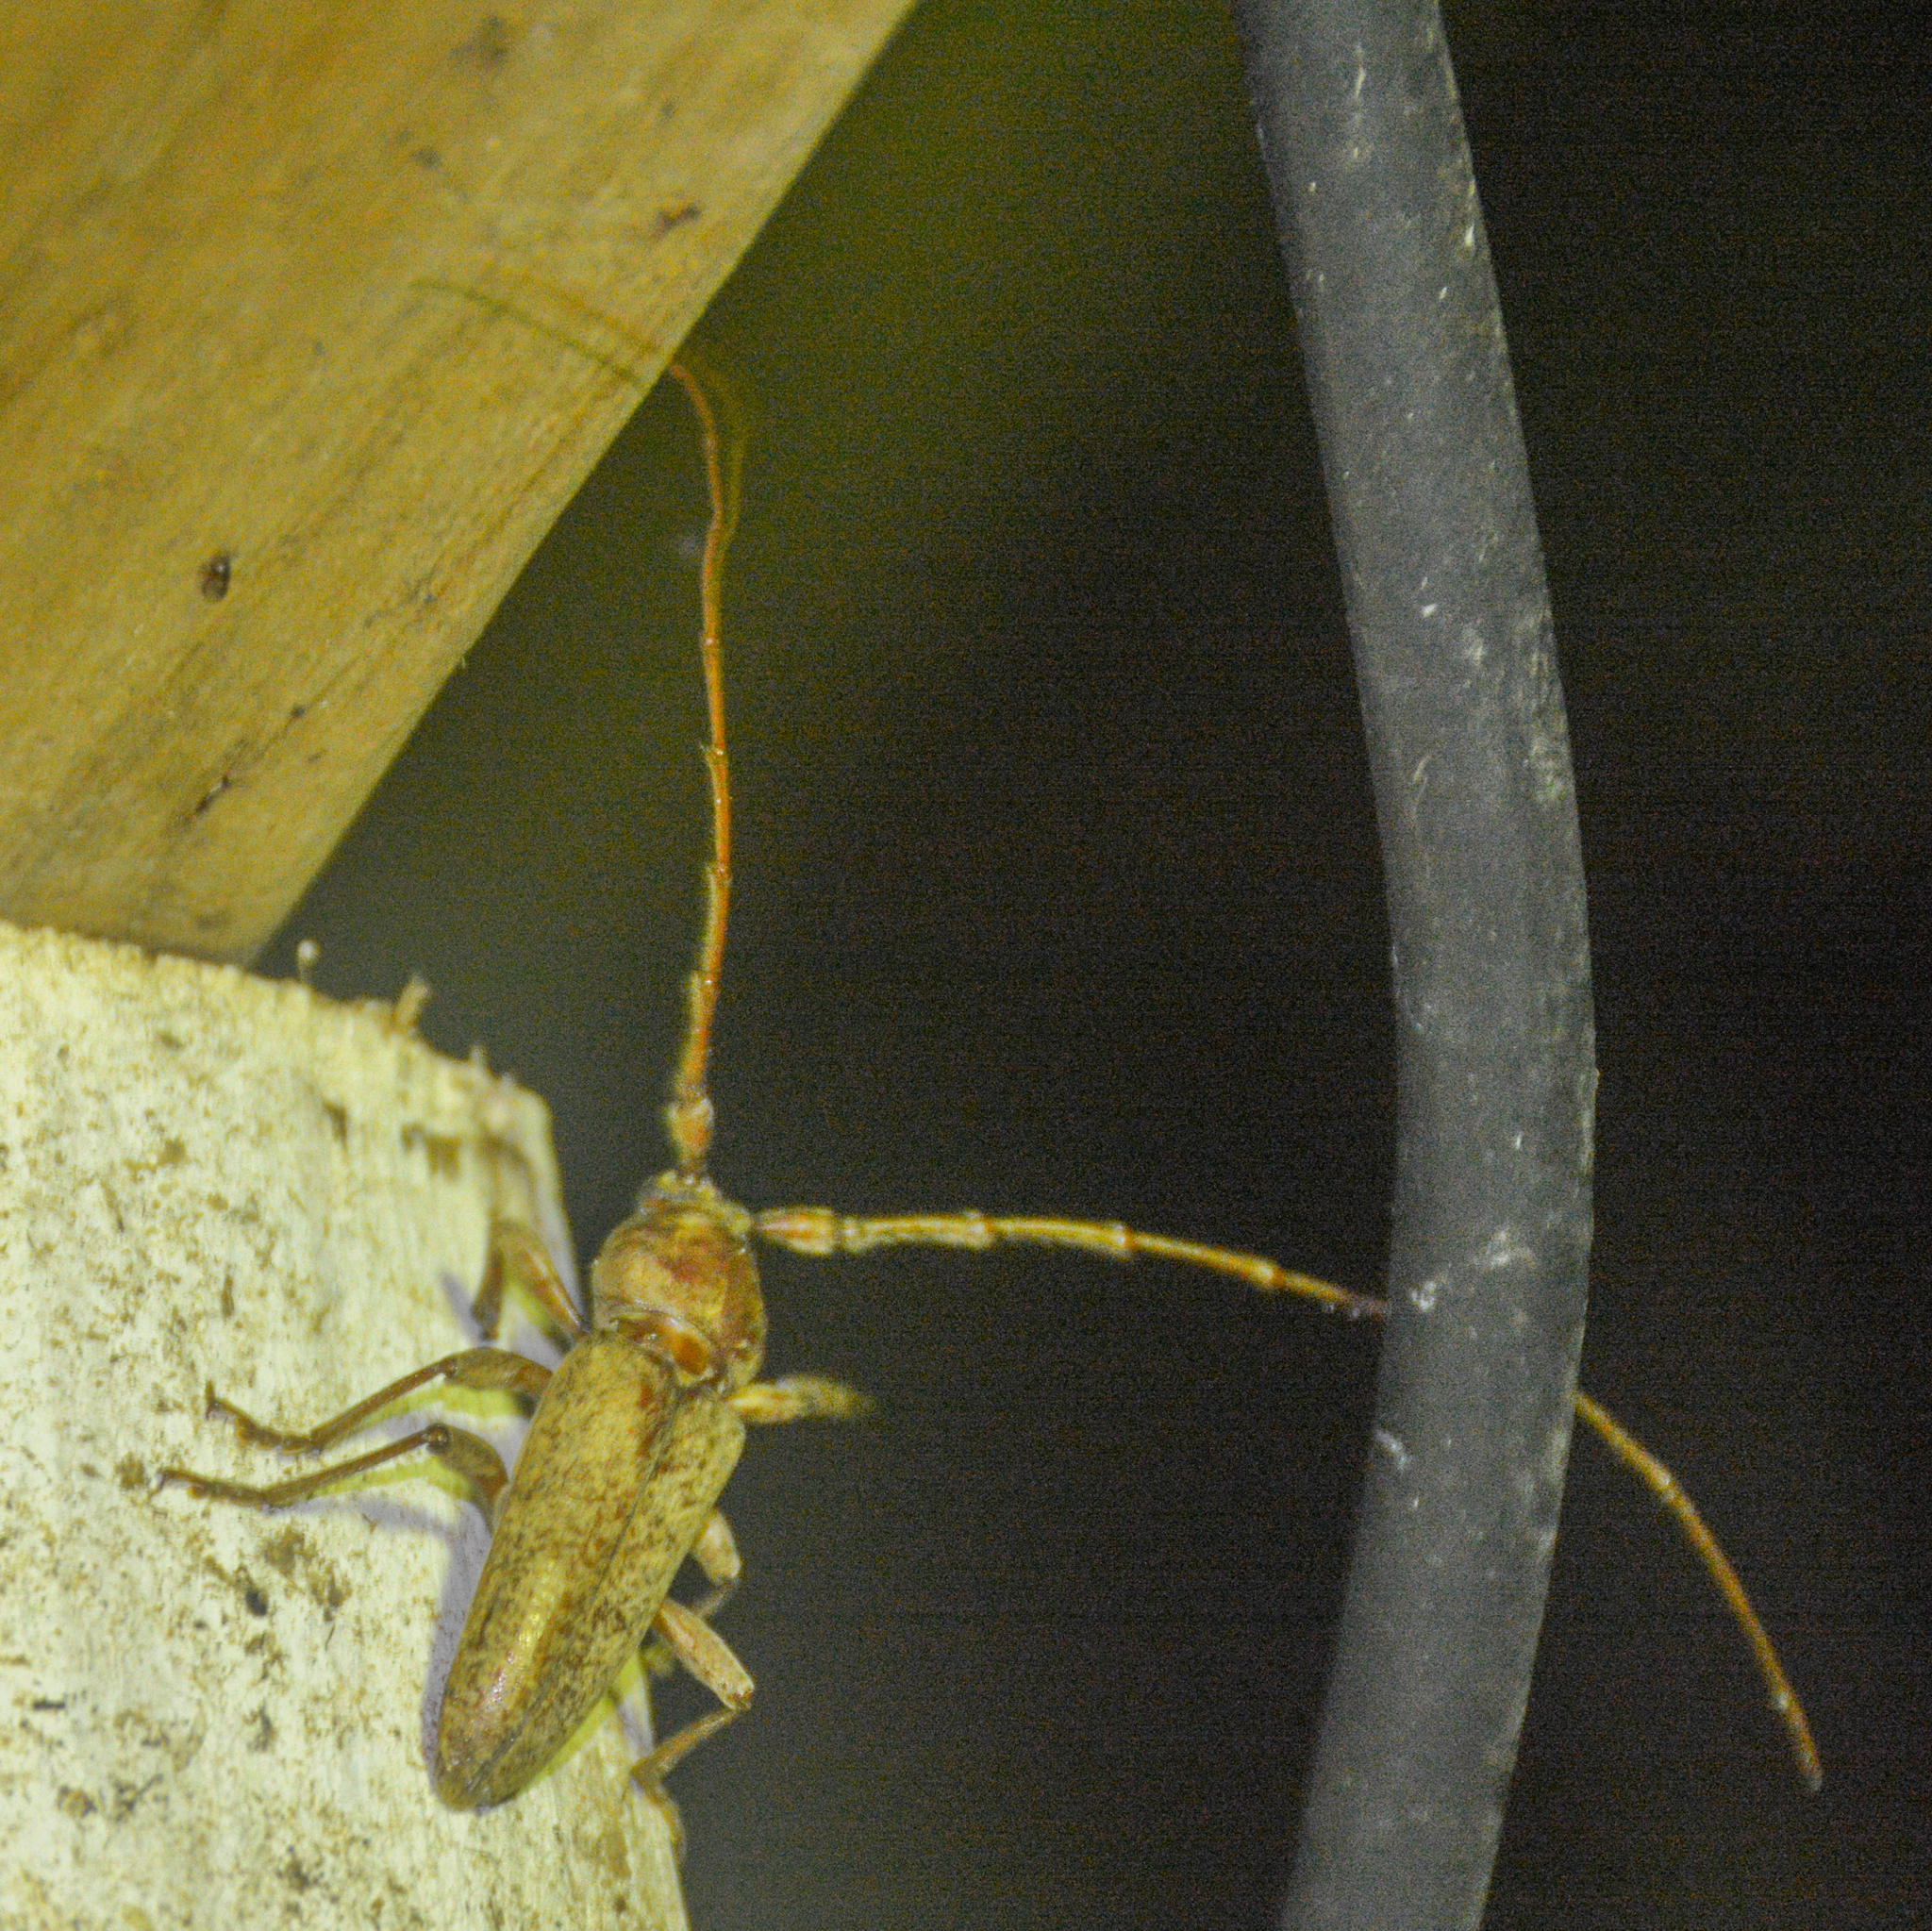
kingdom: Animalia
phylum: Arthropoda
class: Insecta
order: Coleoptera
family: Cerambycidae
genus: Enaphalodes
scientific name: Enaphalodes rufulus
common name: Red oak borer
